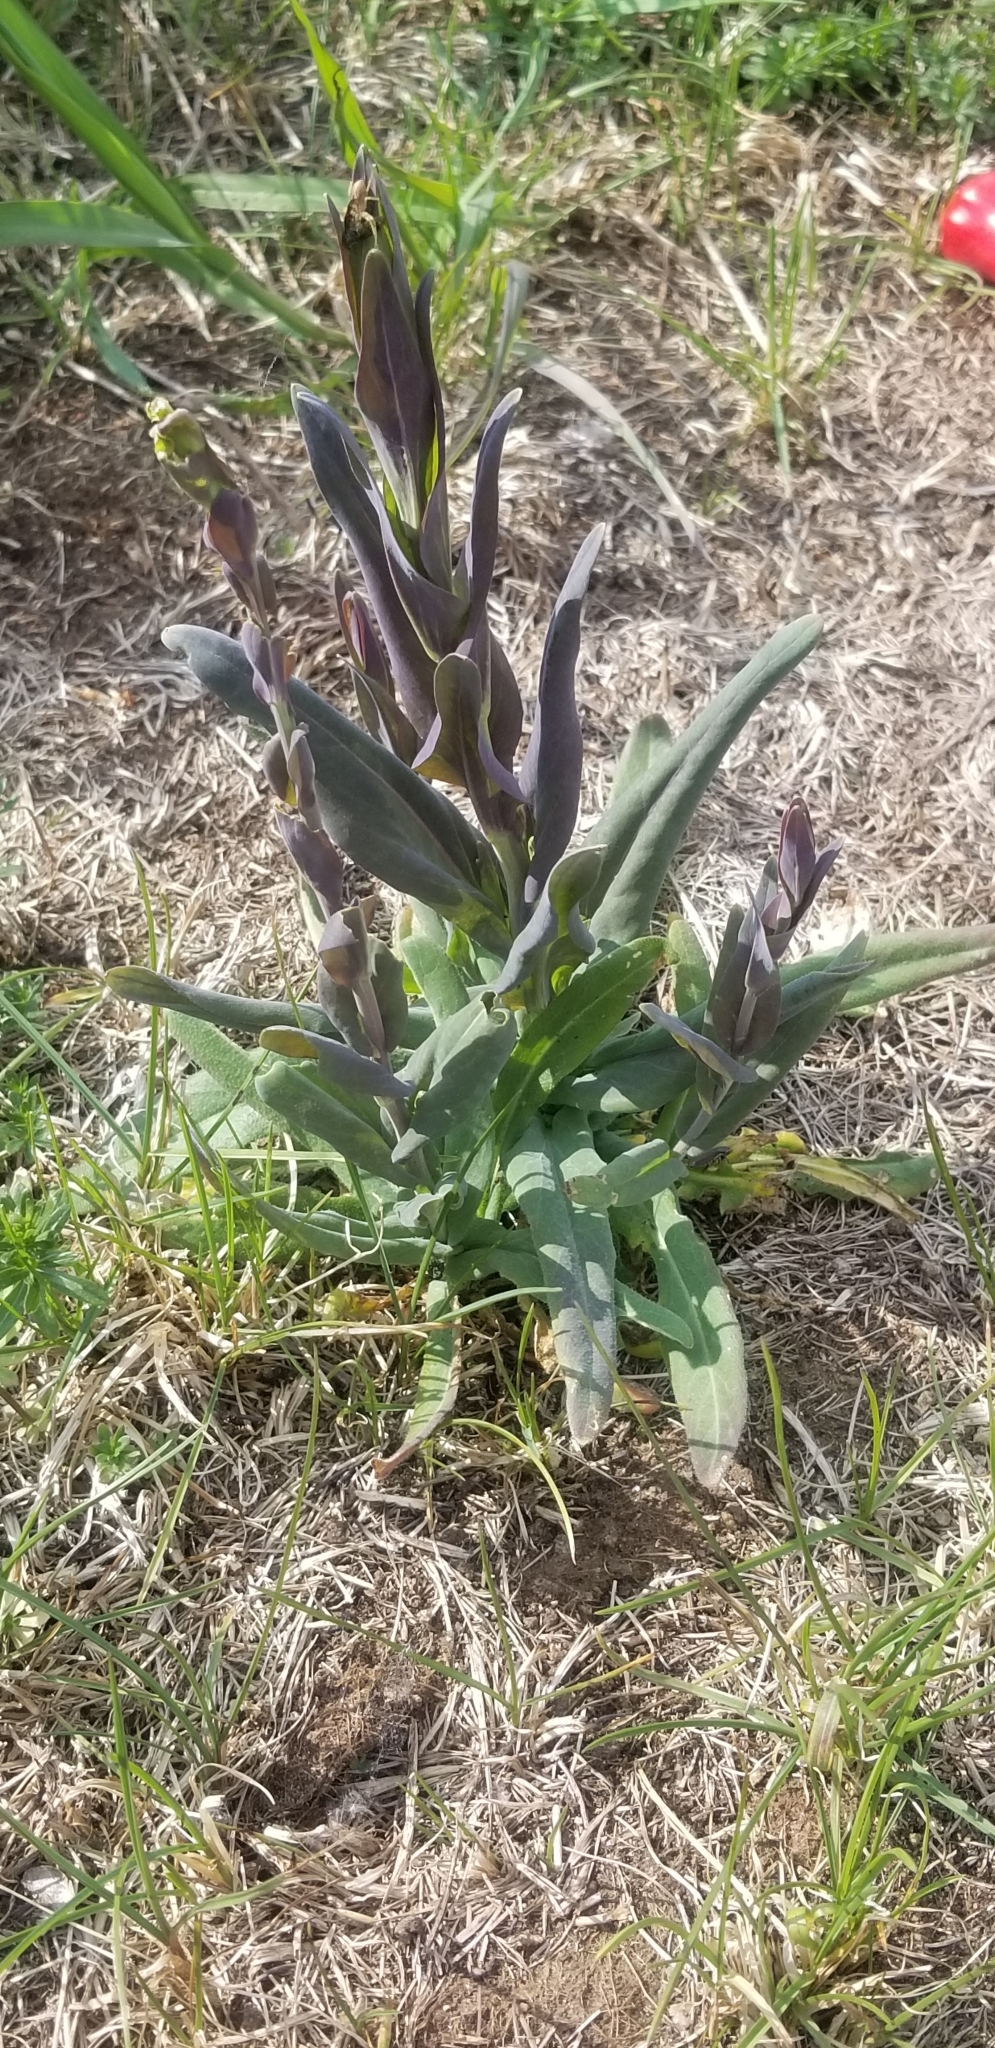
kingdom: Plantae
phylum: Tracheophyta
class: Magnoliopsida
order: Brassicales
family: Brassicaceae
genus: Turritis
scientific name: Turritis glabra
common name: Tower rockcress
